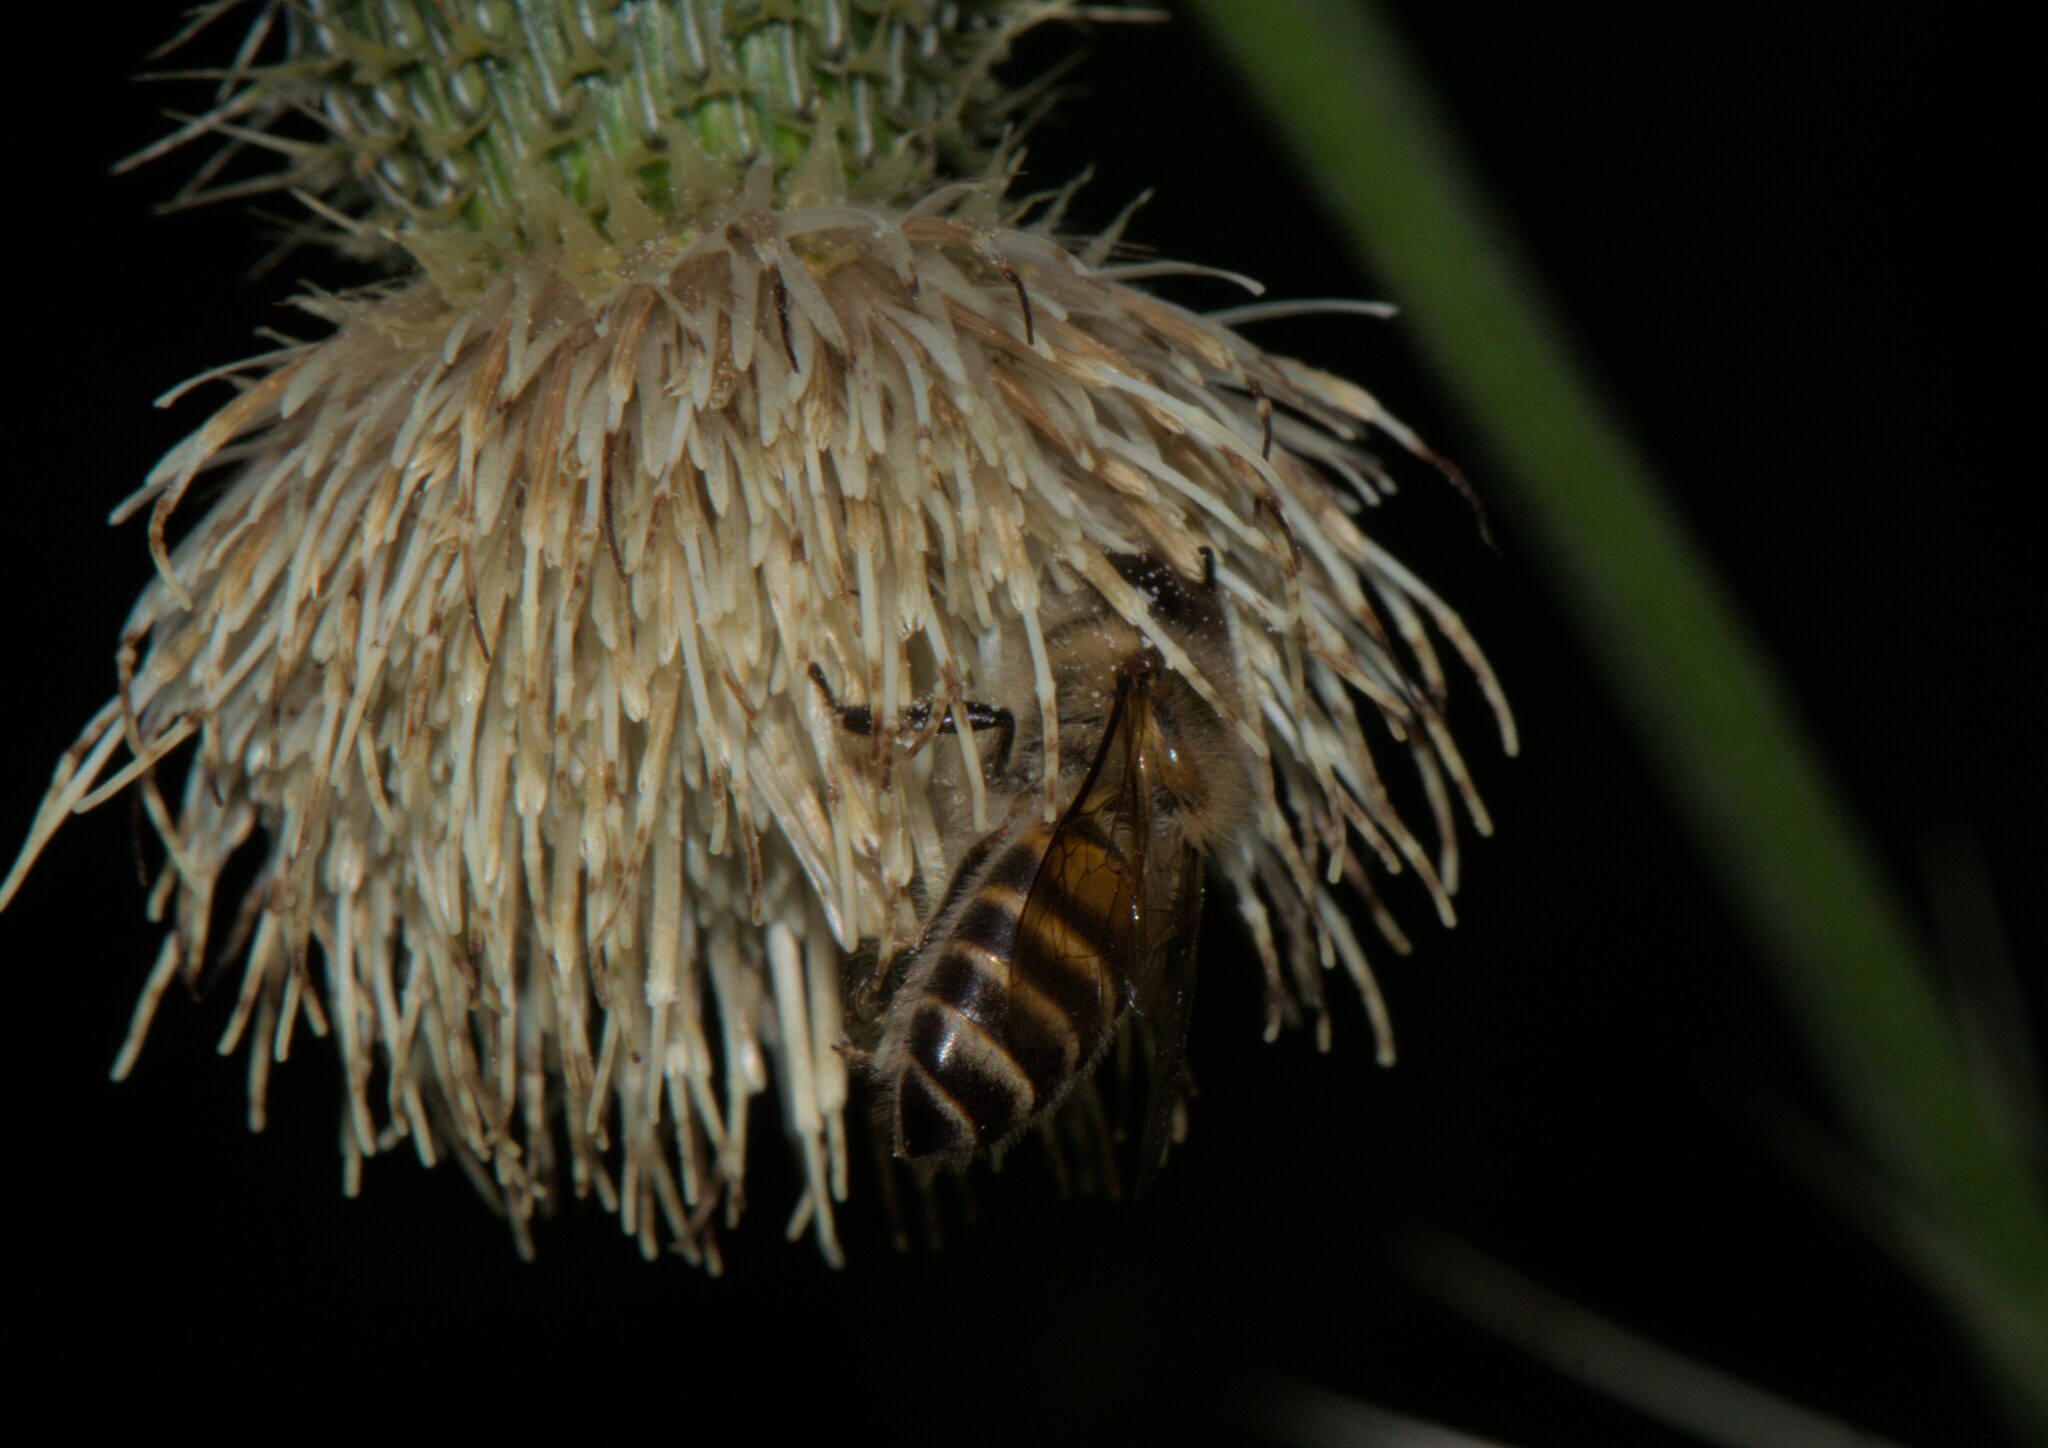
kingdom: Animalia
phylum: Arthropoda
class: Insecta
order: Hymenoptera
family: Apidae
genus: Apis
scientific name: Apis cerana
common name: Honey bee
